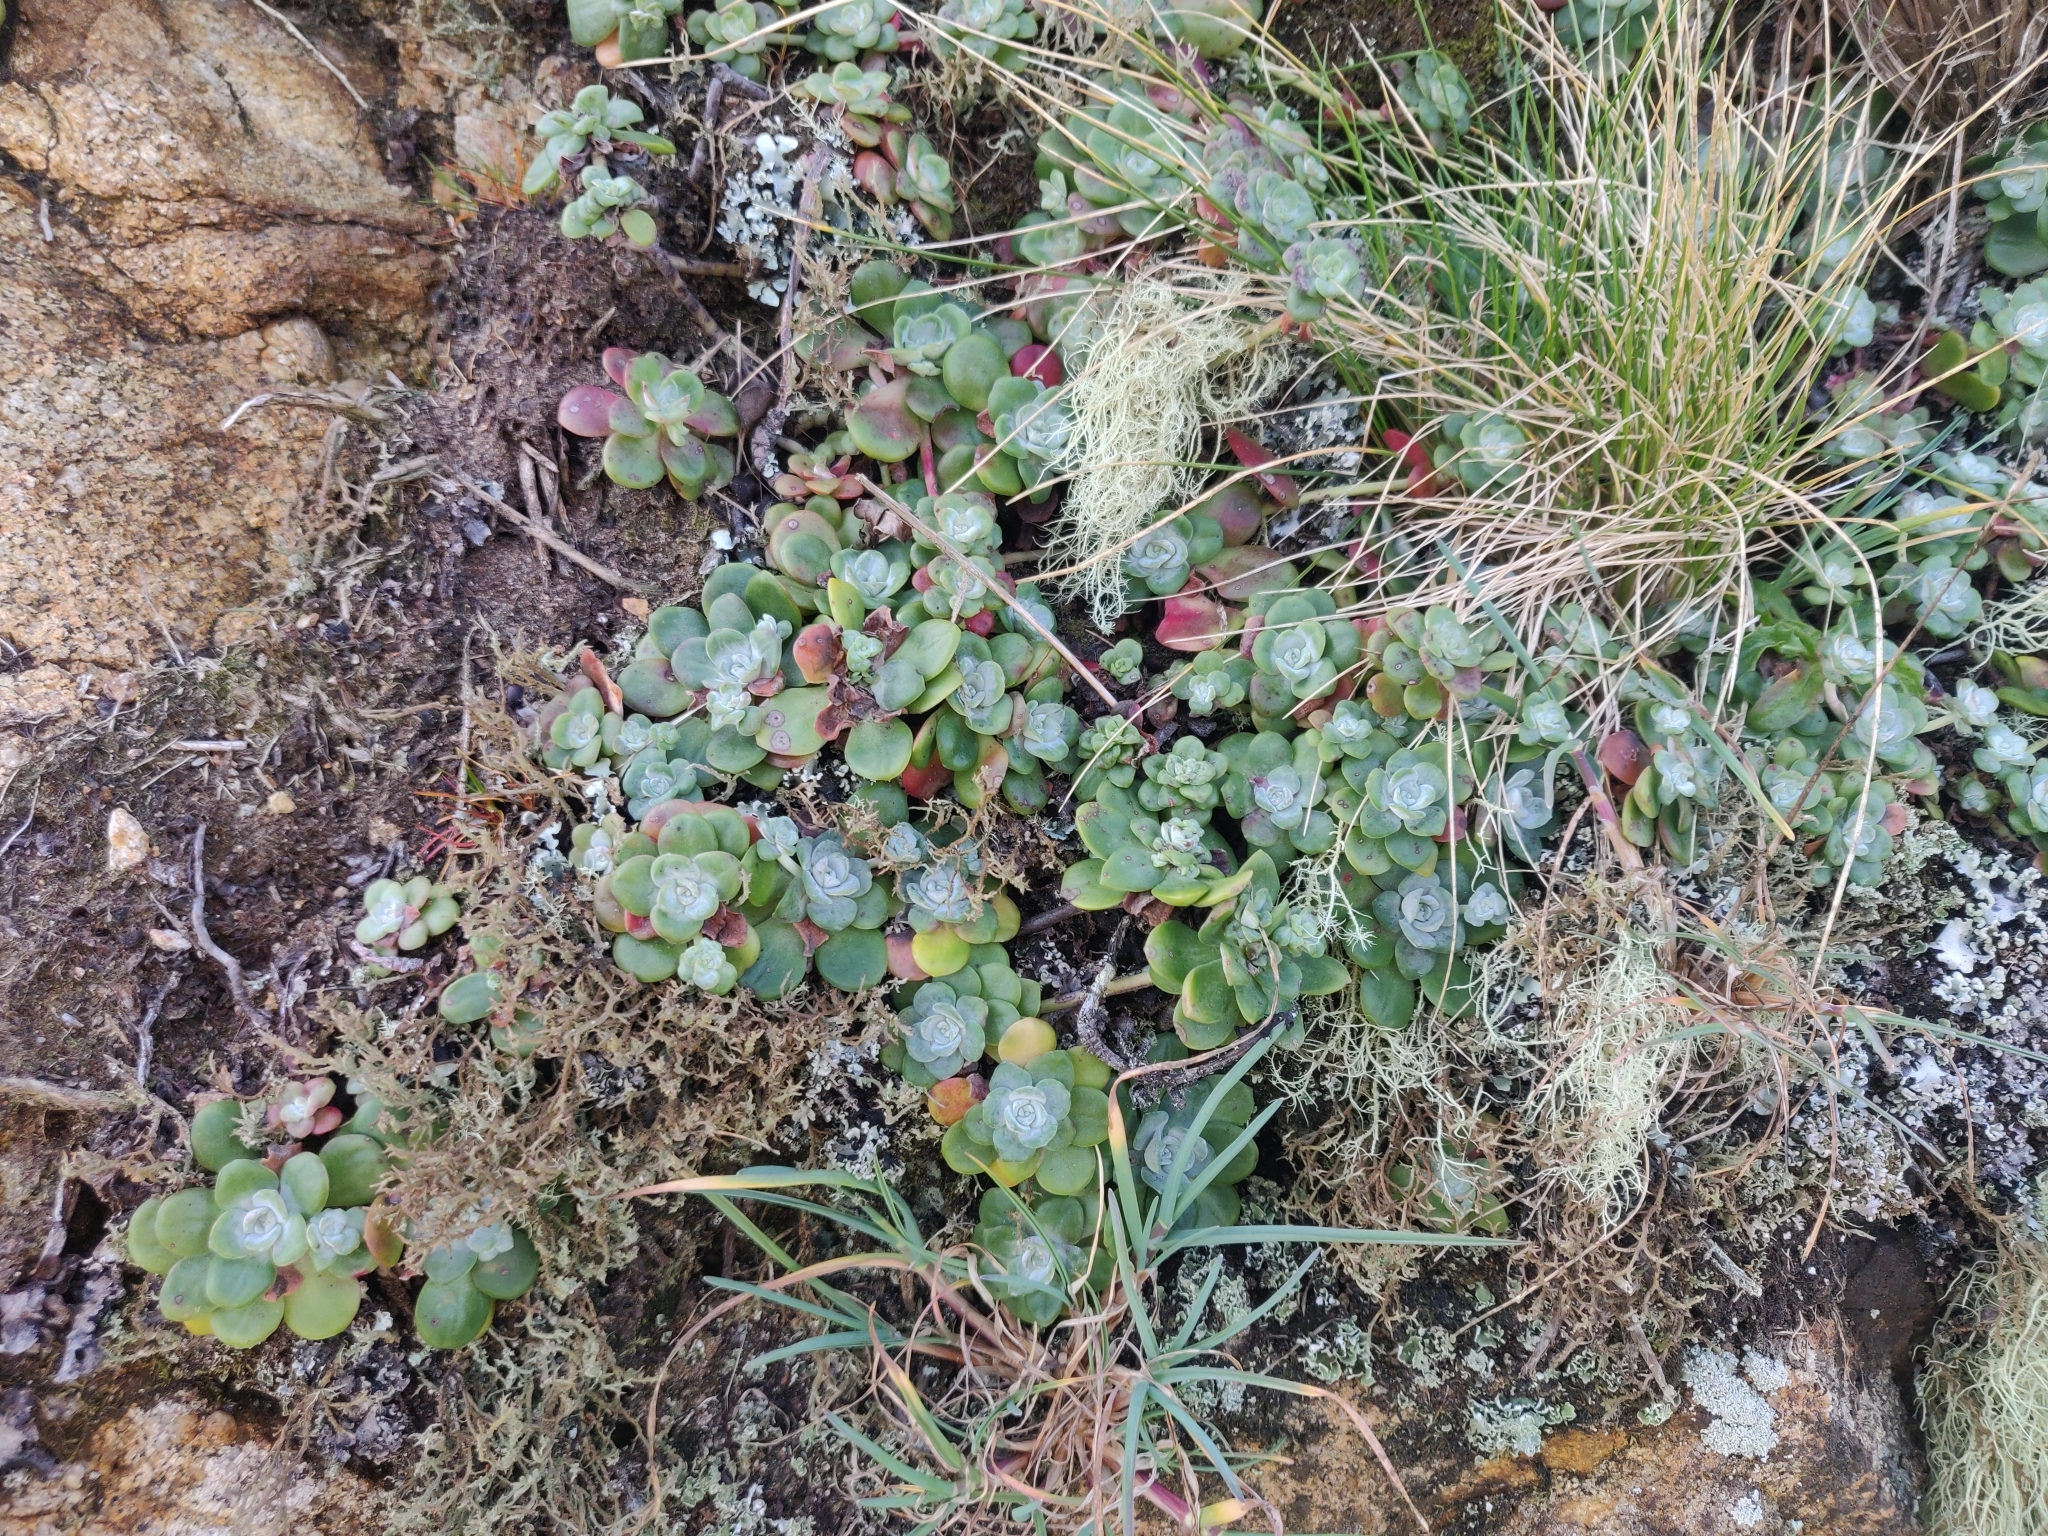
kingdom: Plantae
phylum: Tracheophyta
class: Magnoliopsida
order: Saxifragales
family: Crassulaceae
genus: Sedum
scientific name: Sedum spathulifolium
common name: Colorado stonecrop
